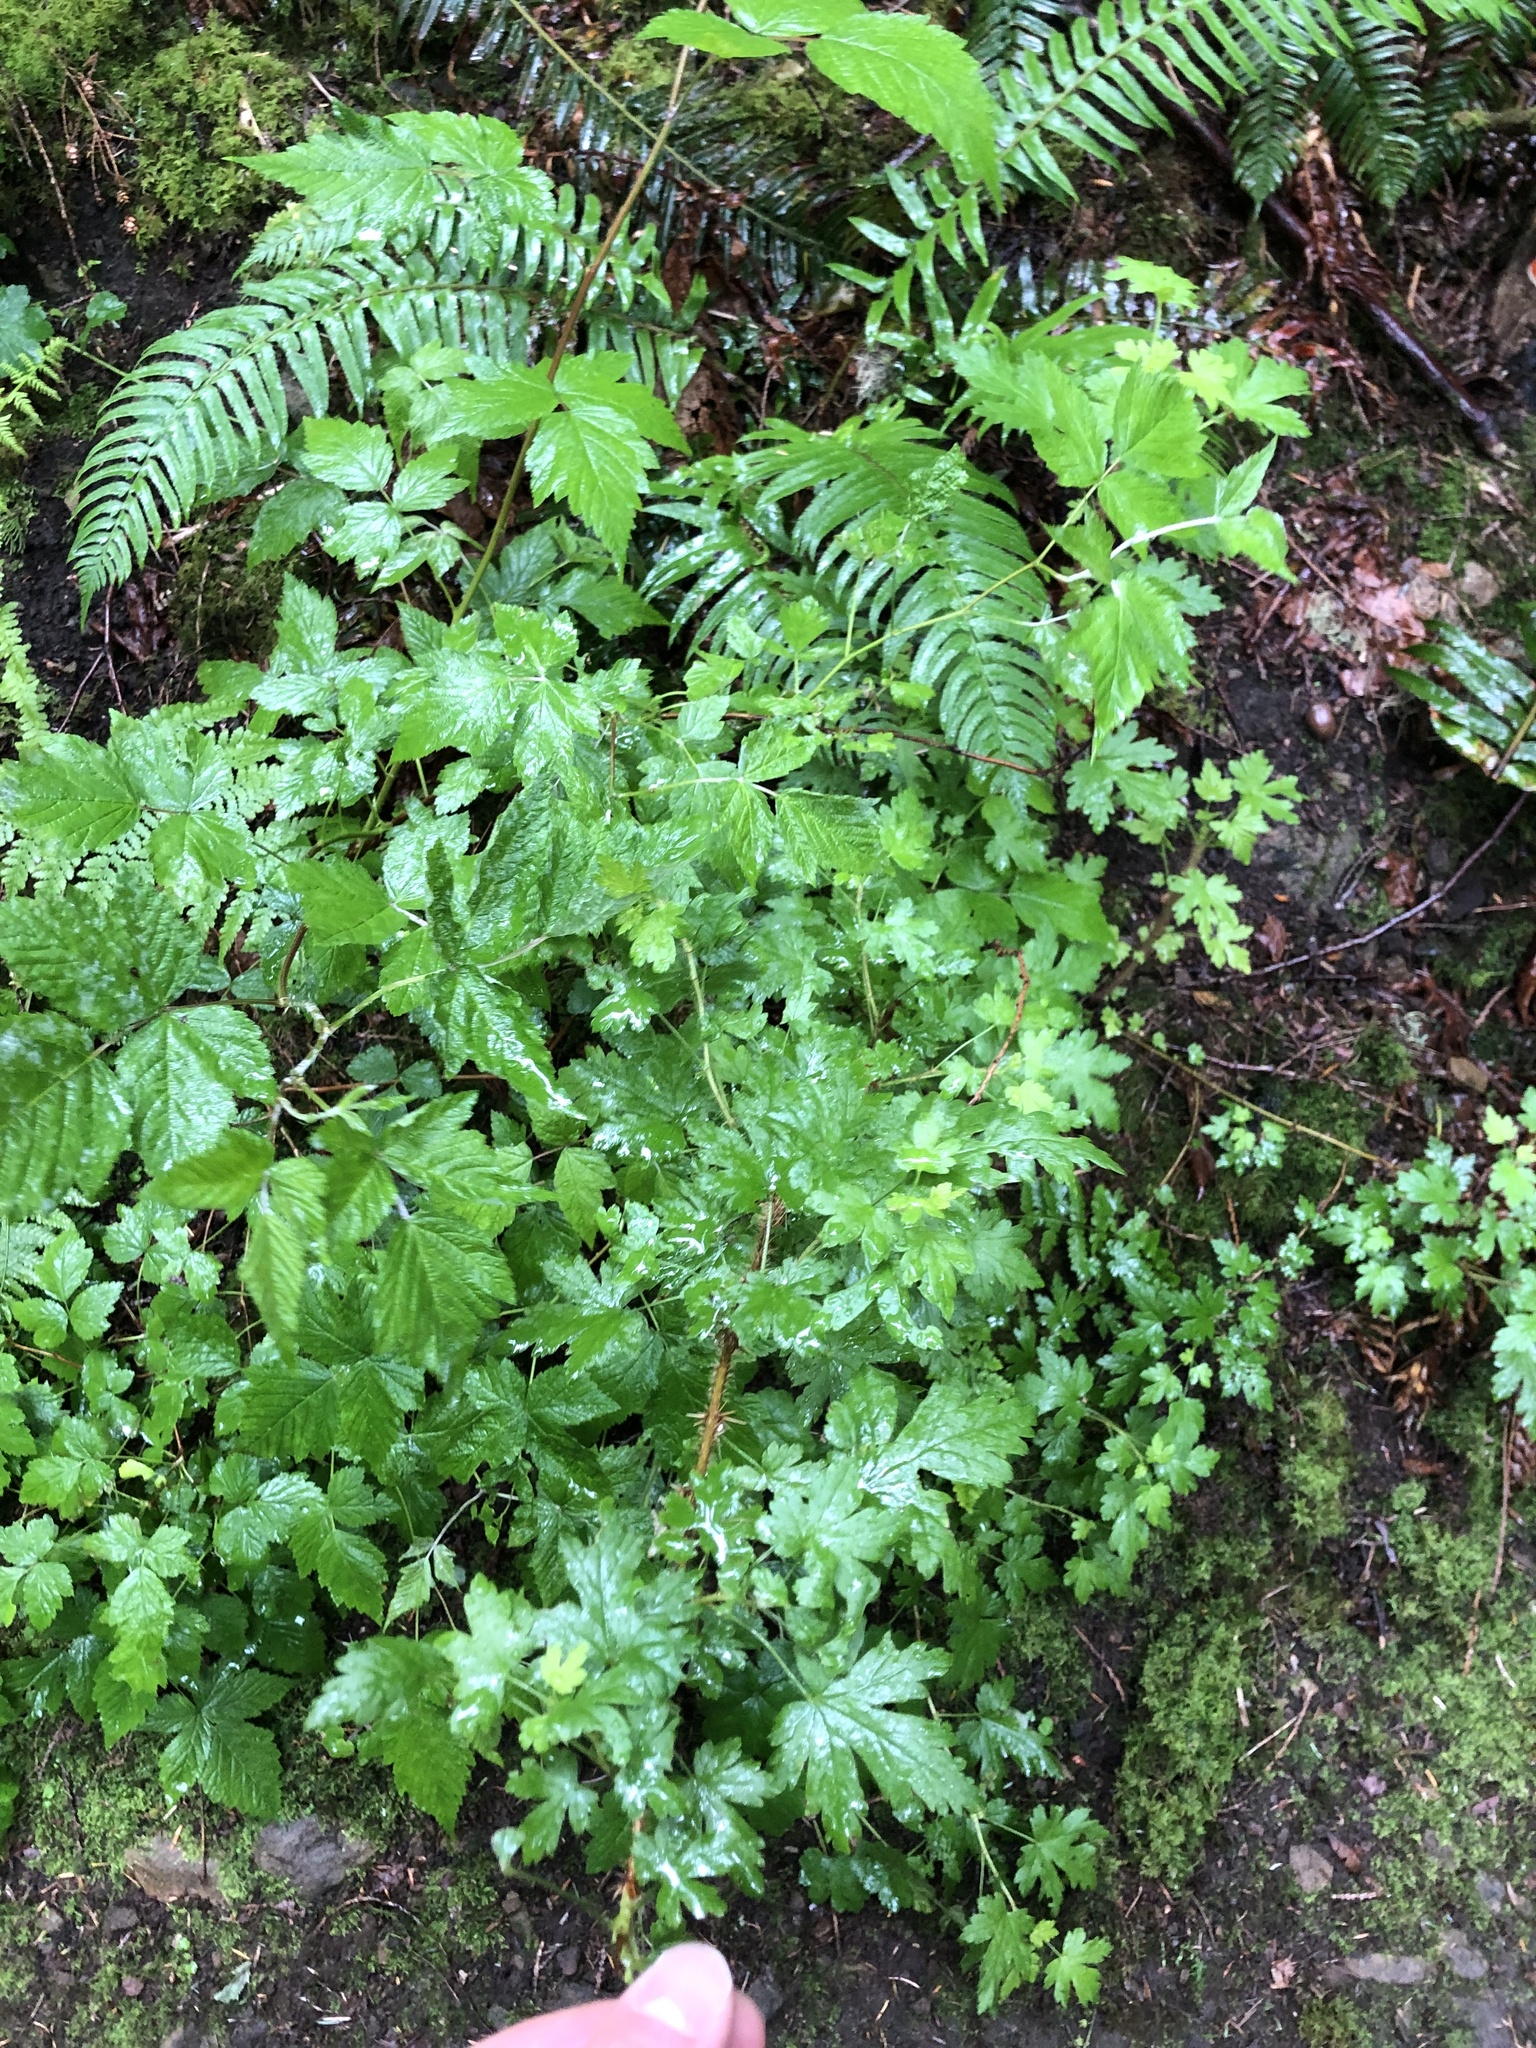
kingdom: Plantae
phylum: Tracheophyta
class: Magnoliopsida
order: Saxifragales
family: Grossulariaceae
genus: Ribes
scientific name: Ribes lacustre
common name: Black gooseberry
